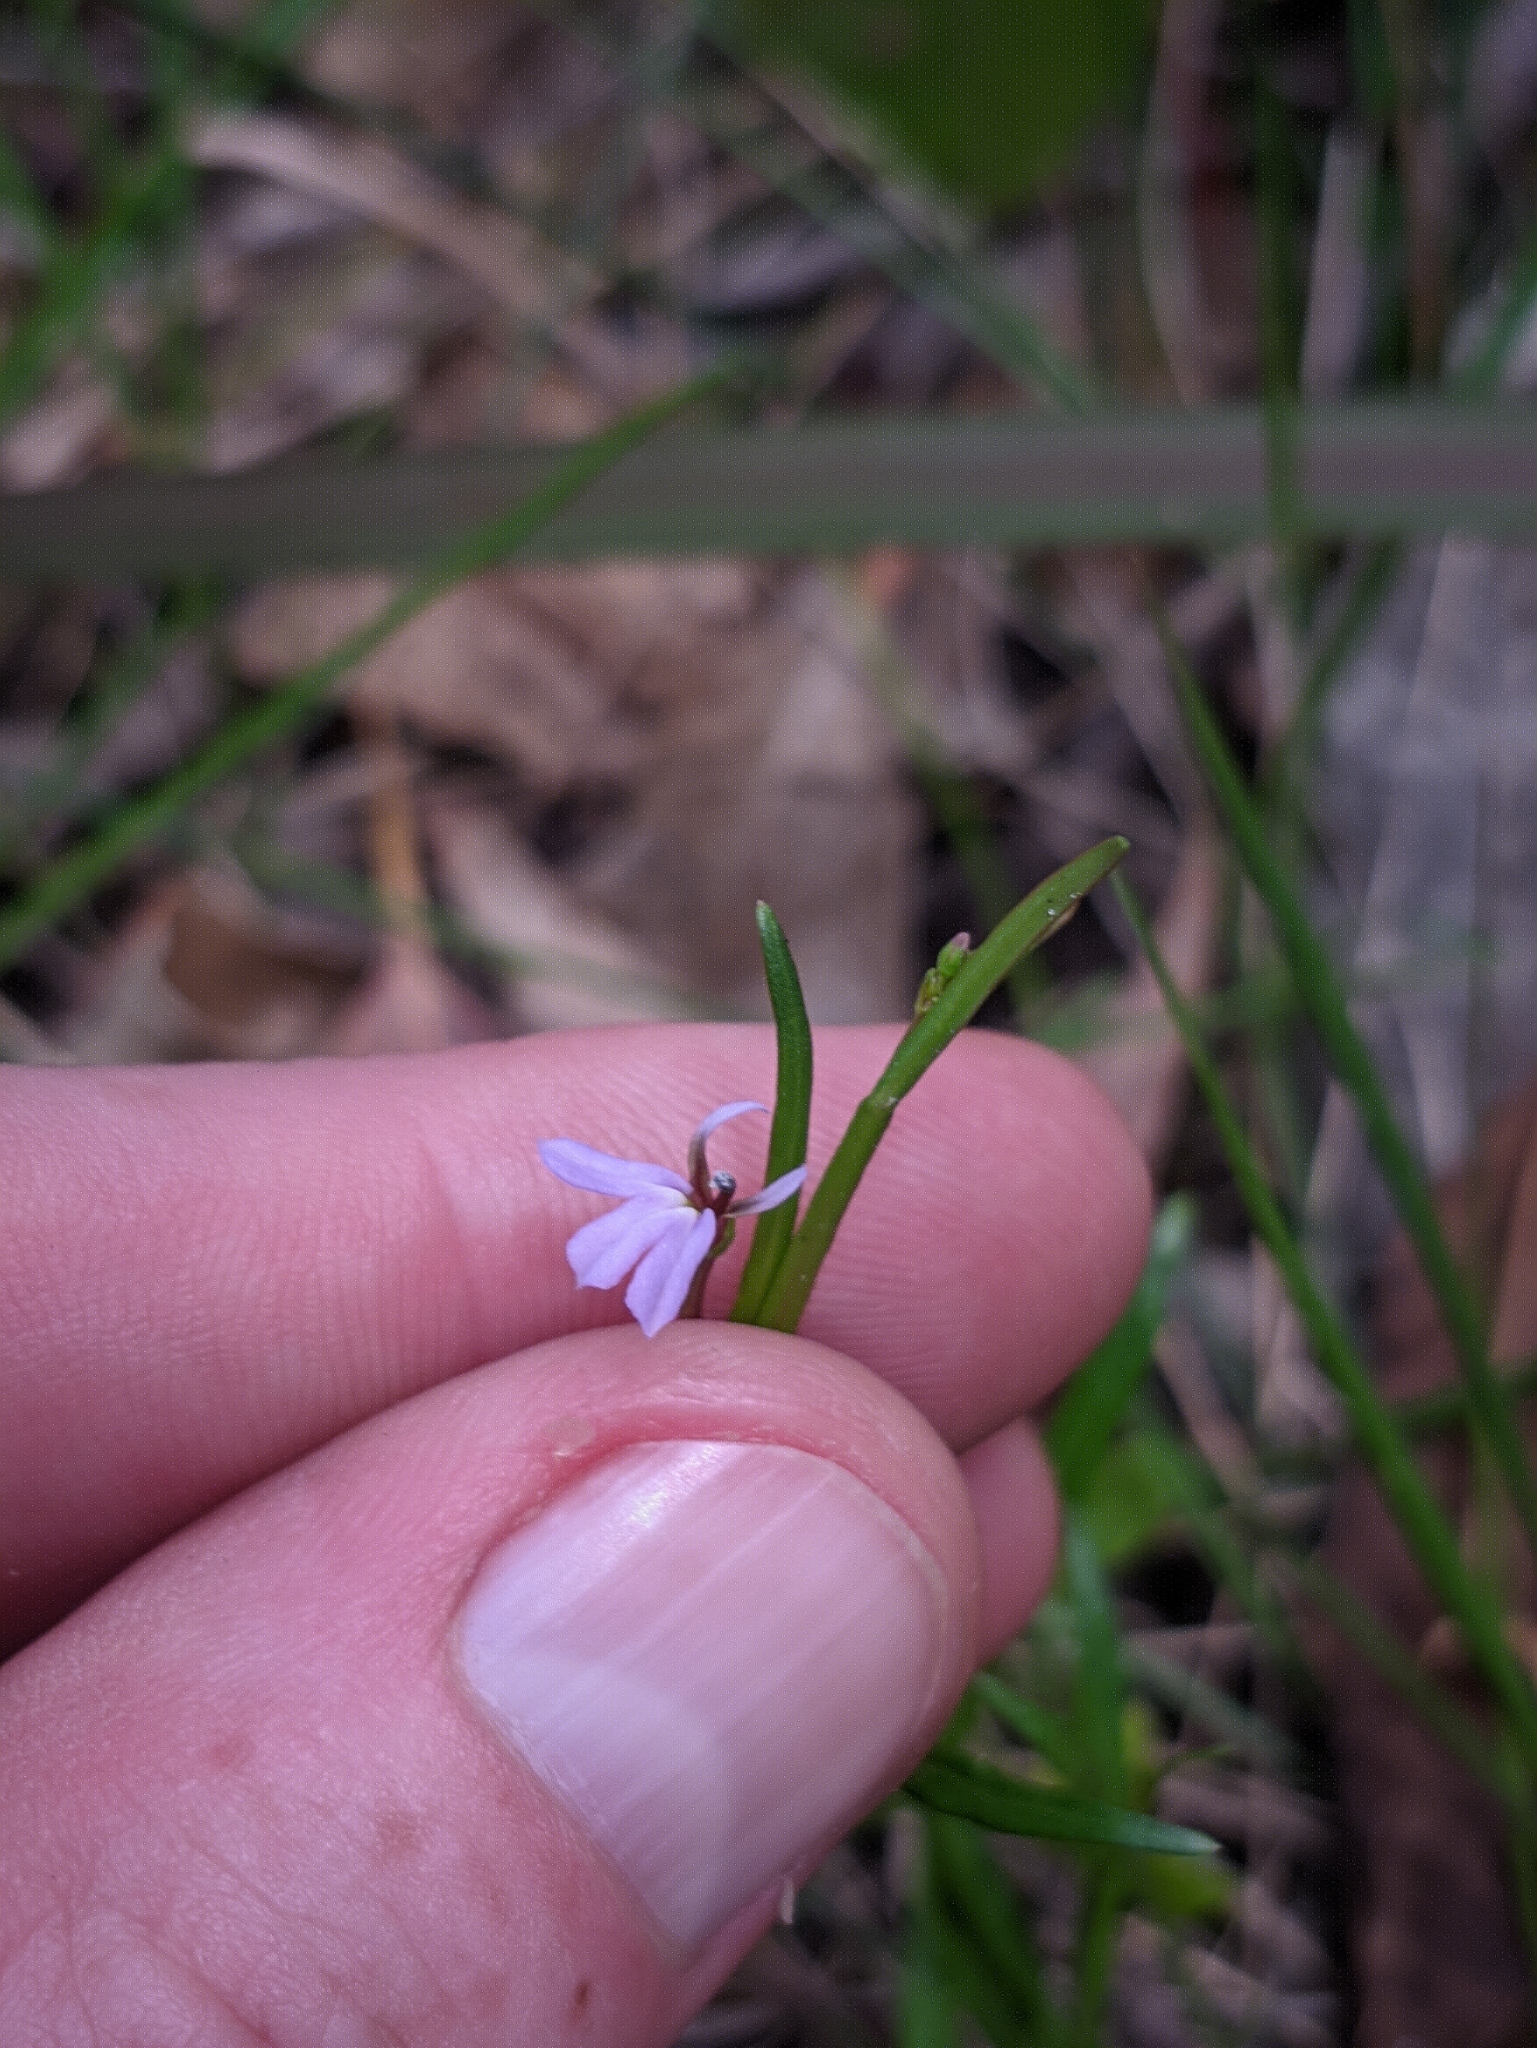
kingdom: Plantae
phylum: Tracheophyta
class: Magnoliopsida
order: Asterales
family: Campanulaceae
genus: Lobelia
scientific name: Lobelia anceps
